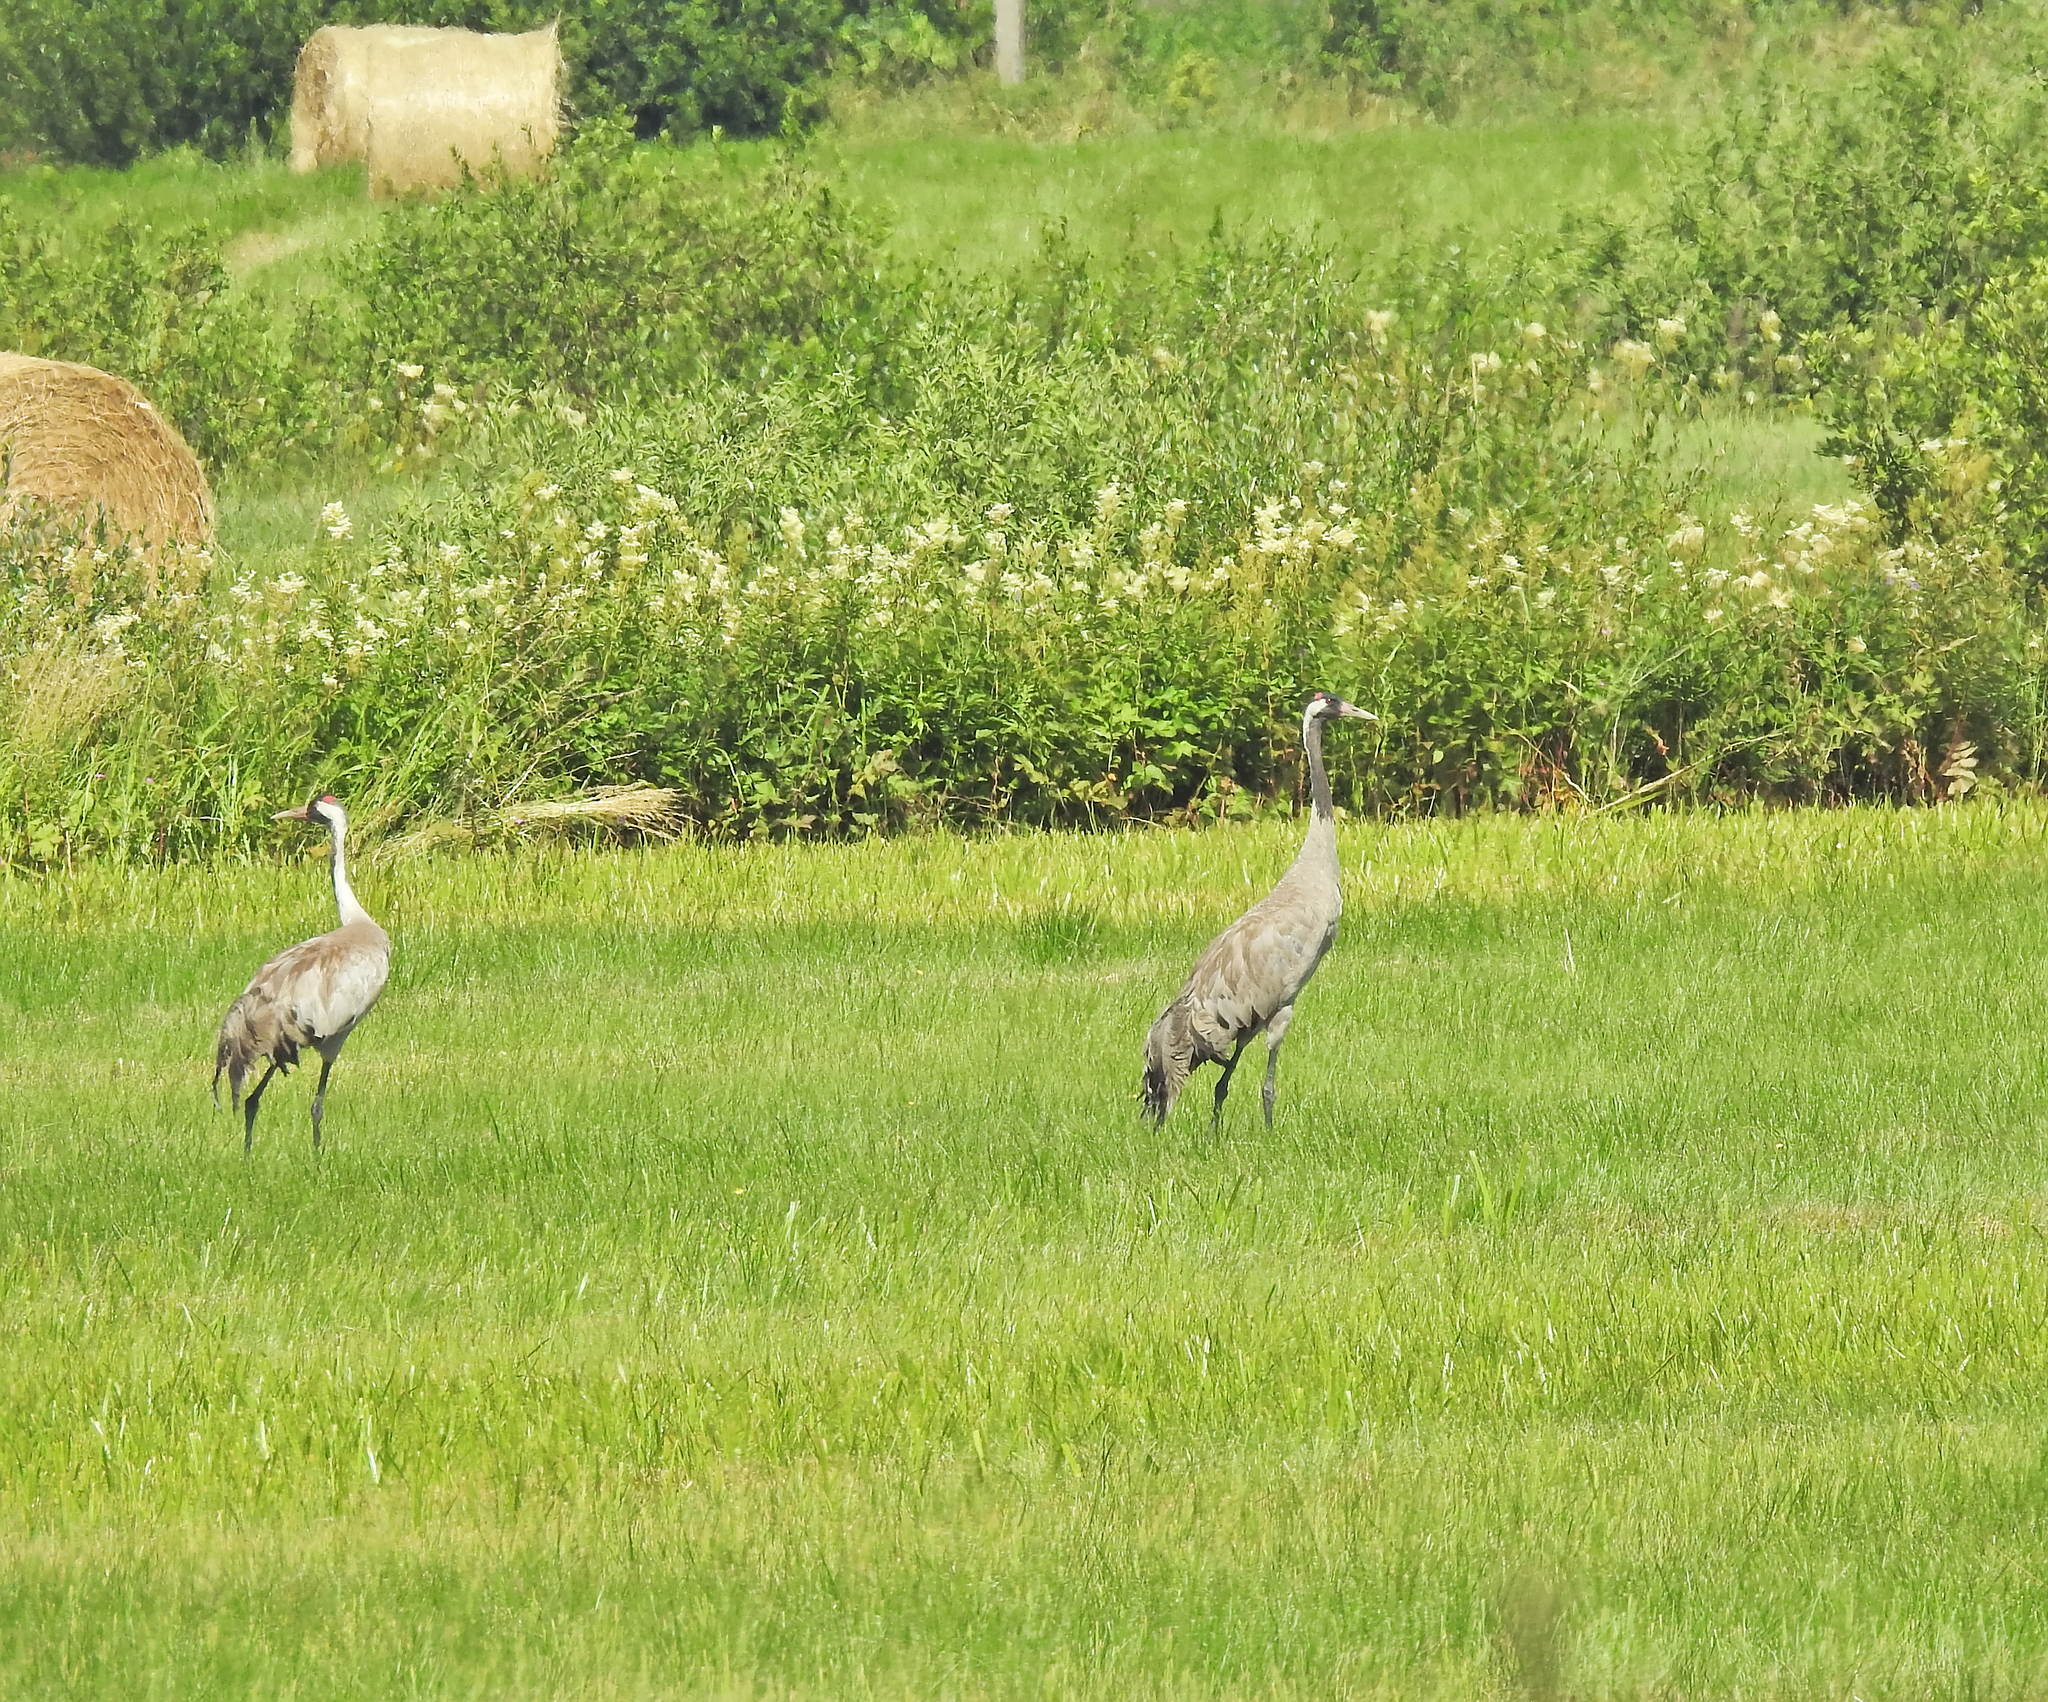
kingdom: Animalia
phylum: Chordata
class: Aves
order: Gruiformes
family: Gruidae
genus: Grus
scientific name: Grus grus
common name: Common crane
